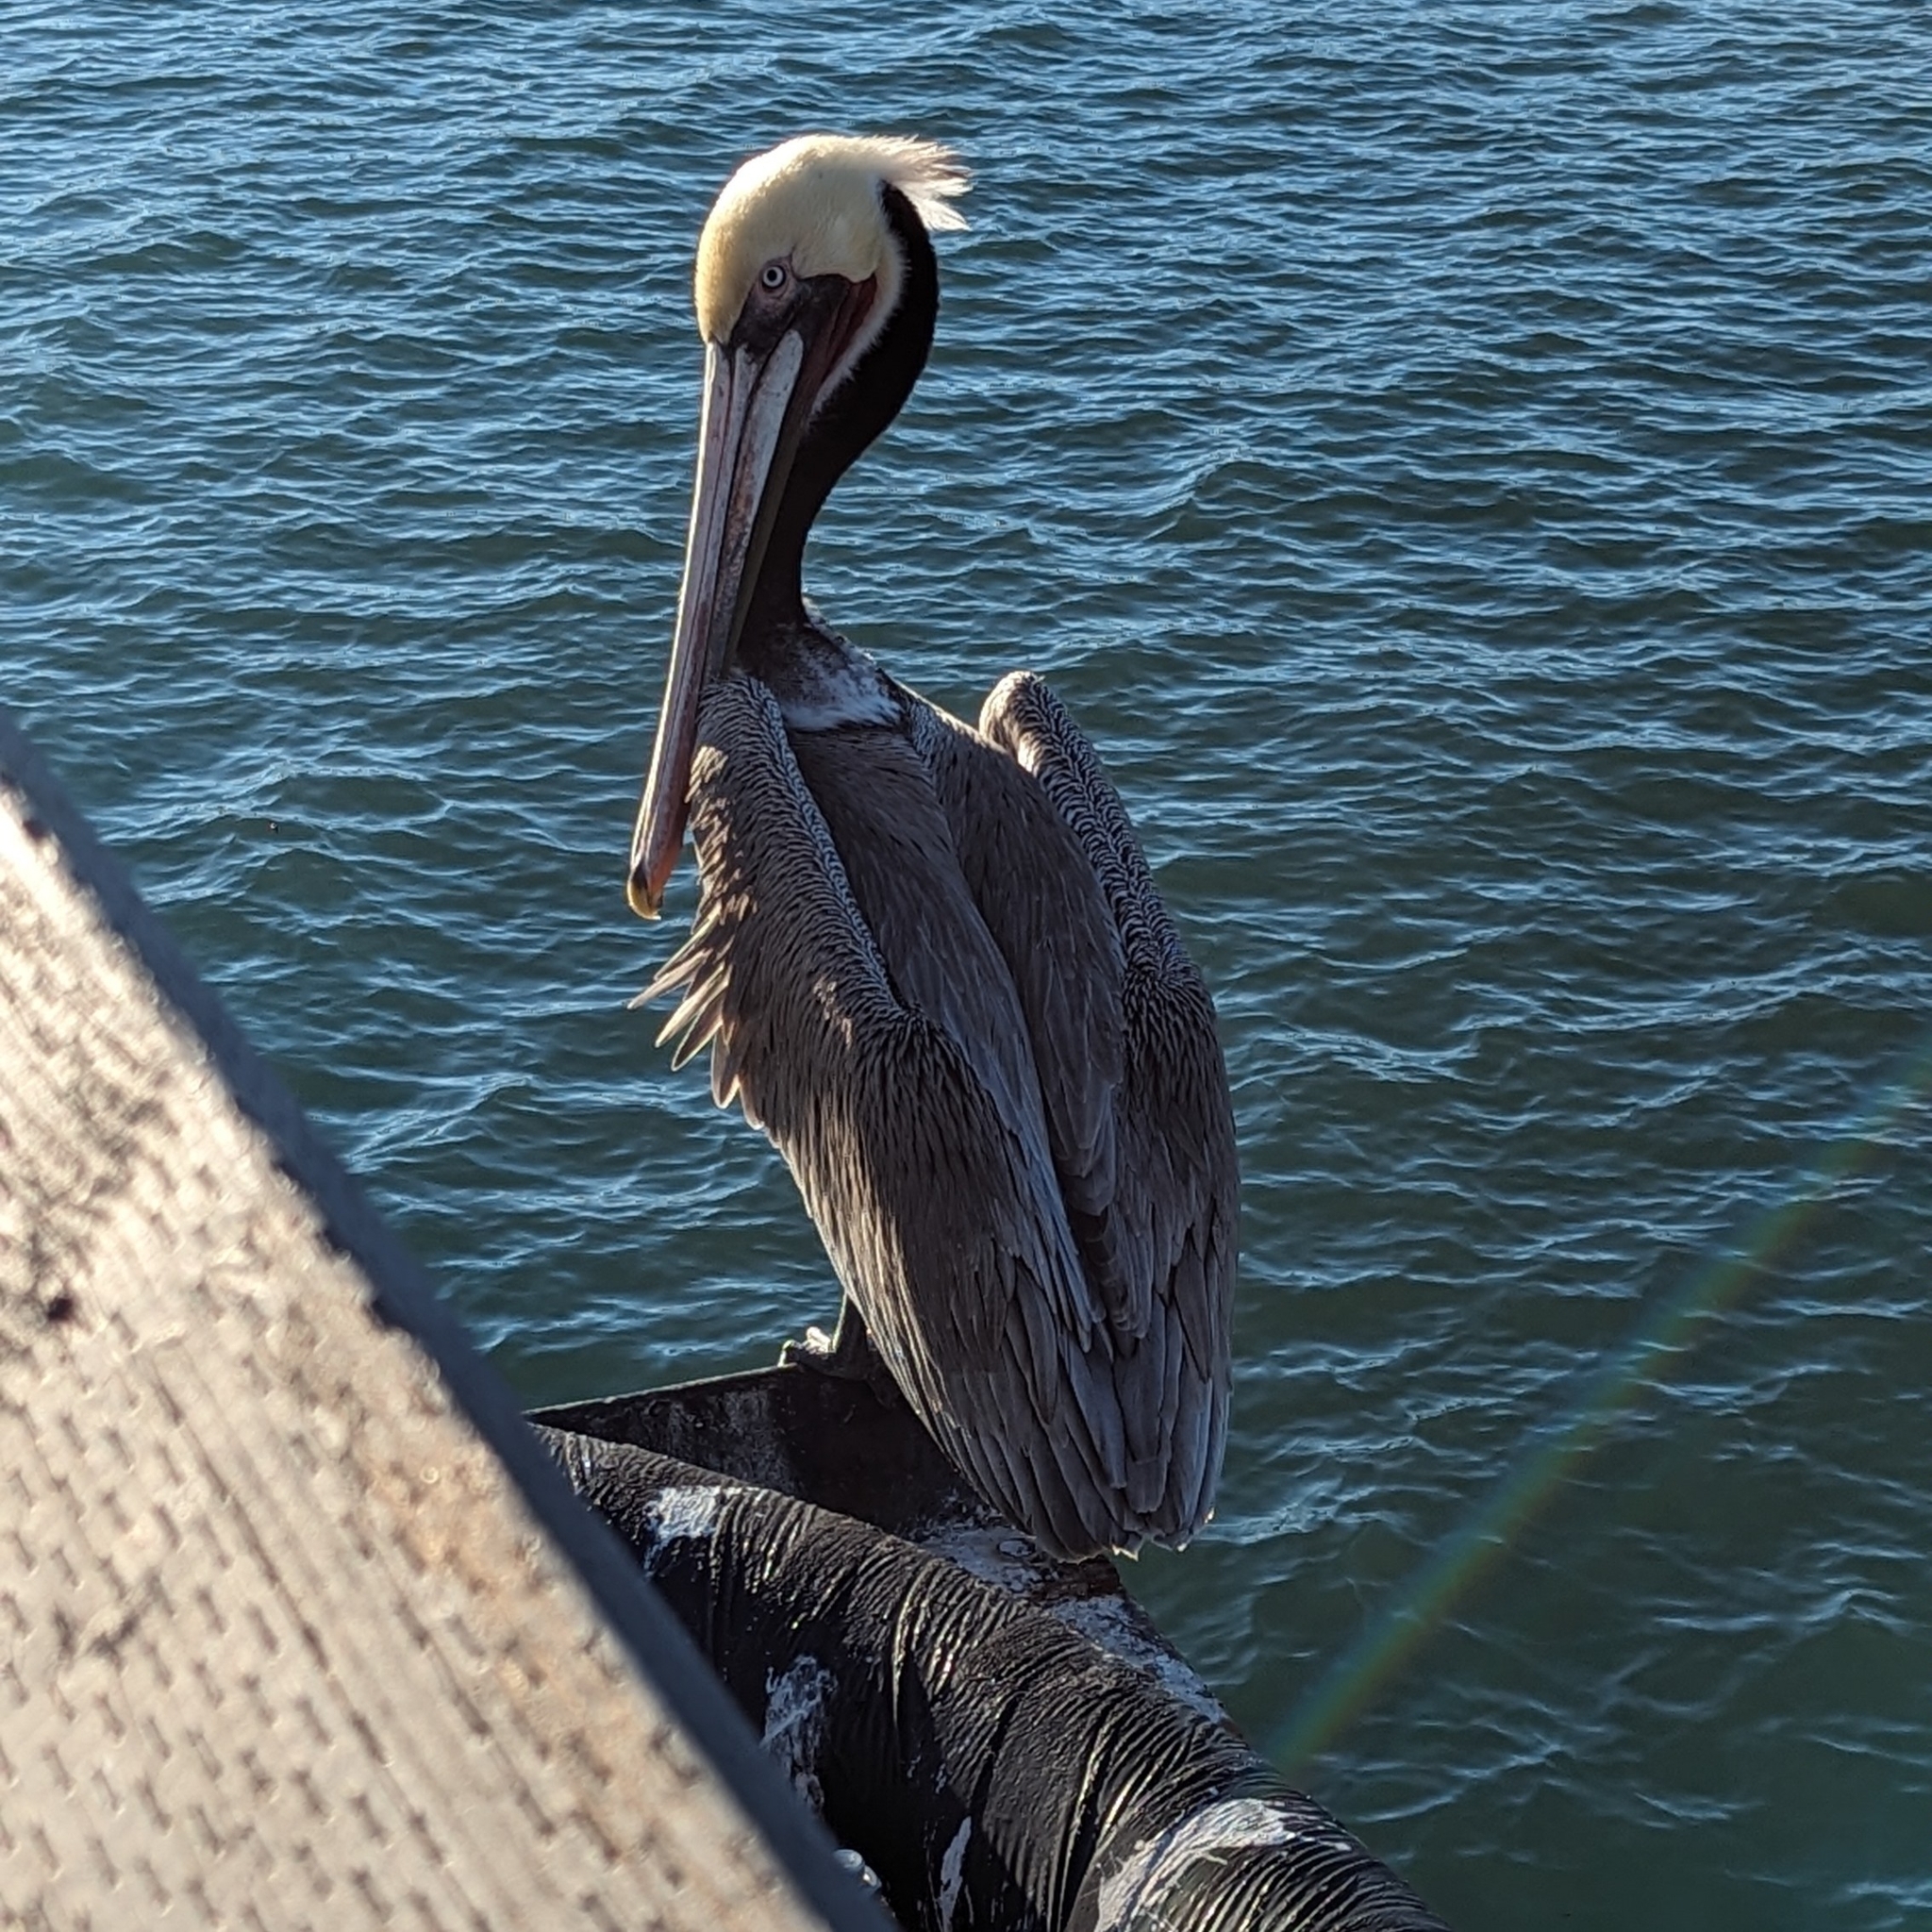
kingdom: Animalia
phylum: Chordata
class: Aves
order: Pelecaniformes
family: Pelecanidae
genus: Pelecanus
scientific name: Pelecanus occidentalis
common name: Brown pelican
